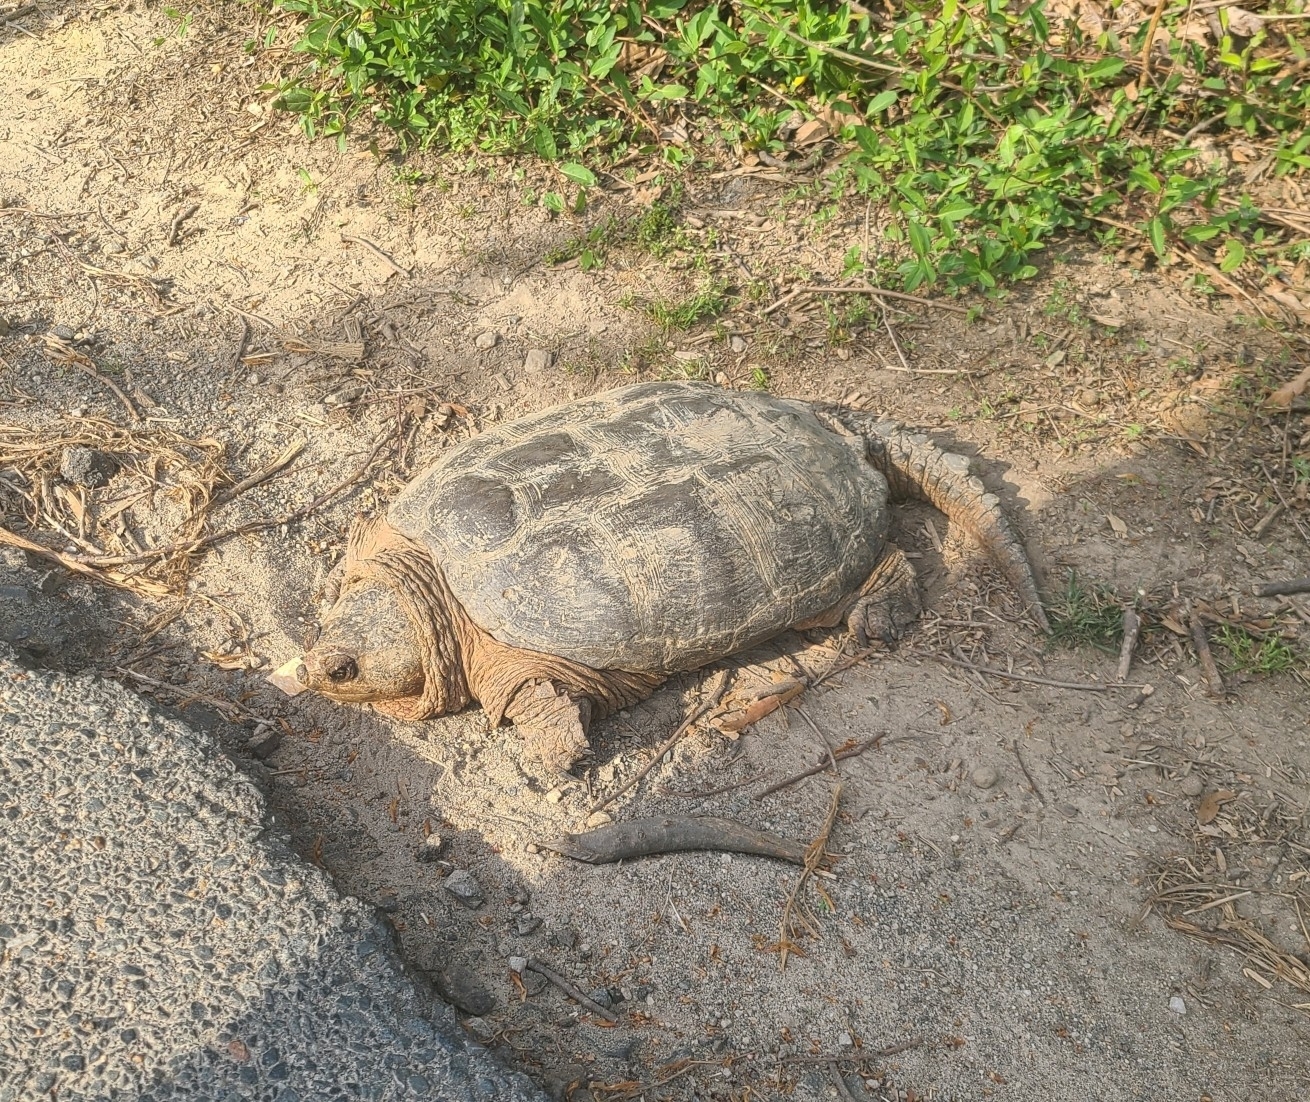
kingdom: Animalia
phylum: Chordata
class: Testudines
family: Chelydridae
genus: Chelydra
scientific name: Chelydra serpentina
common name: Common snapping turtle
